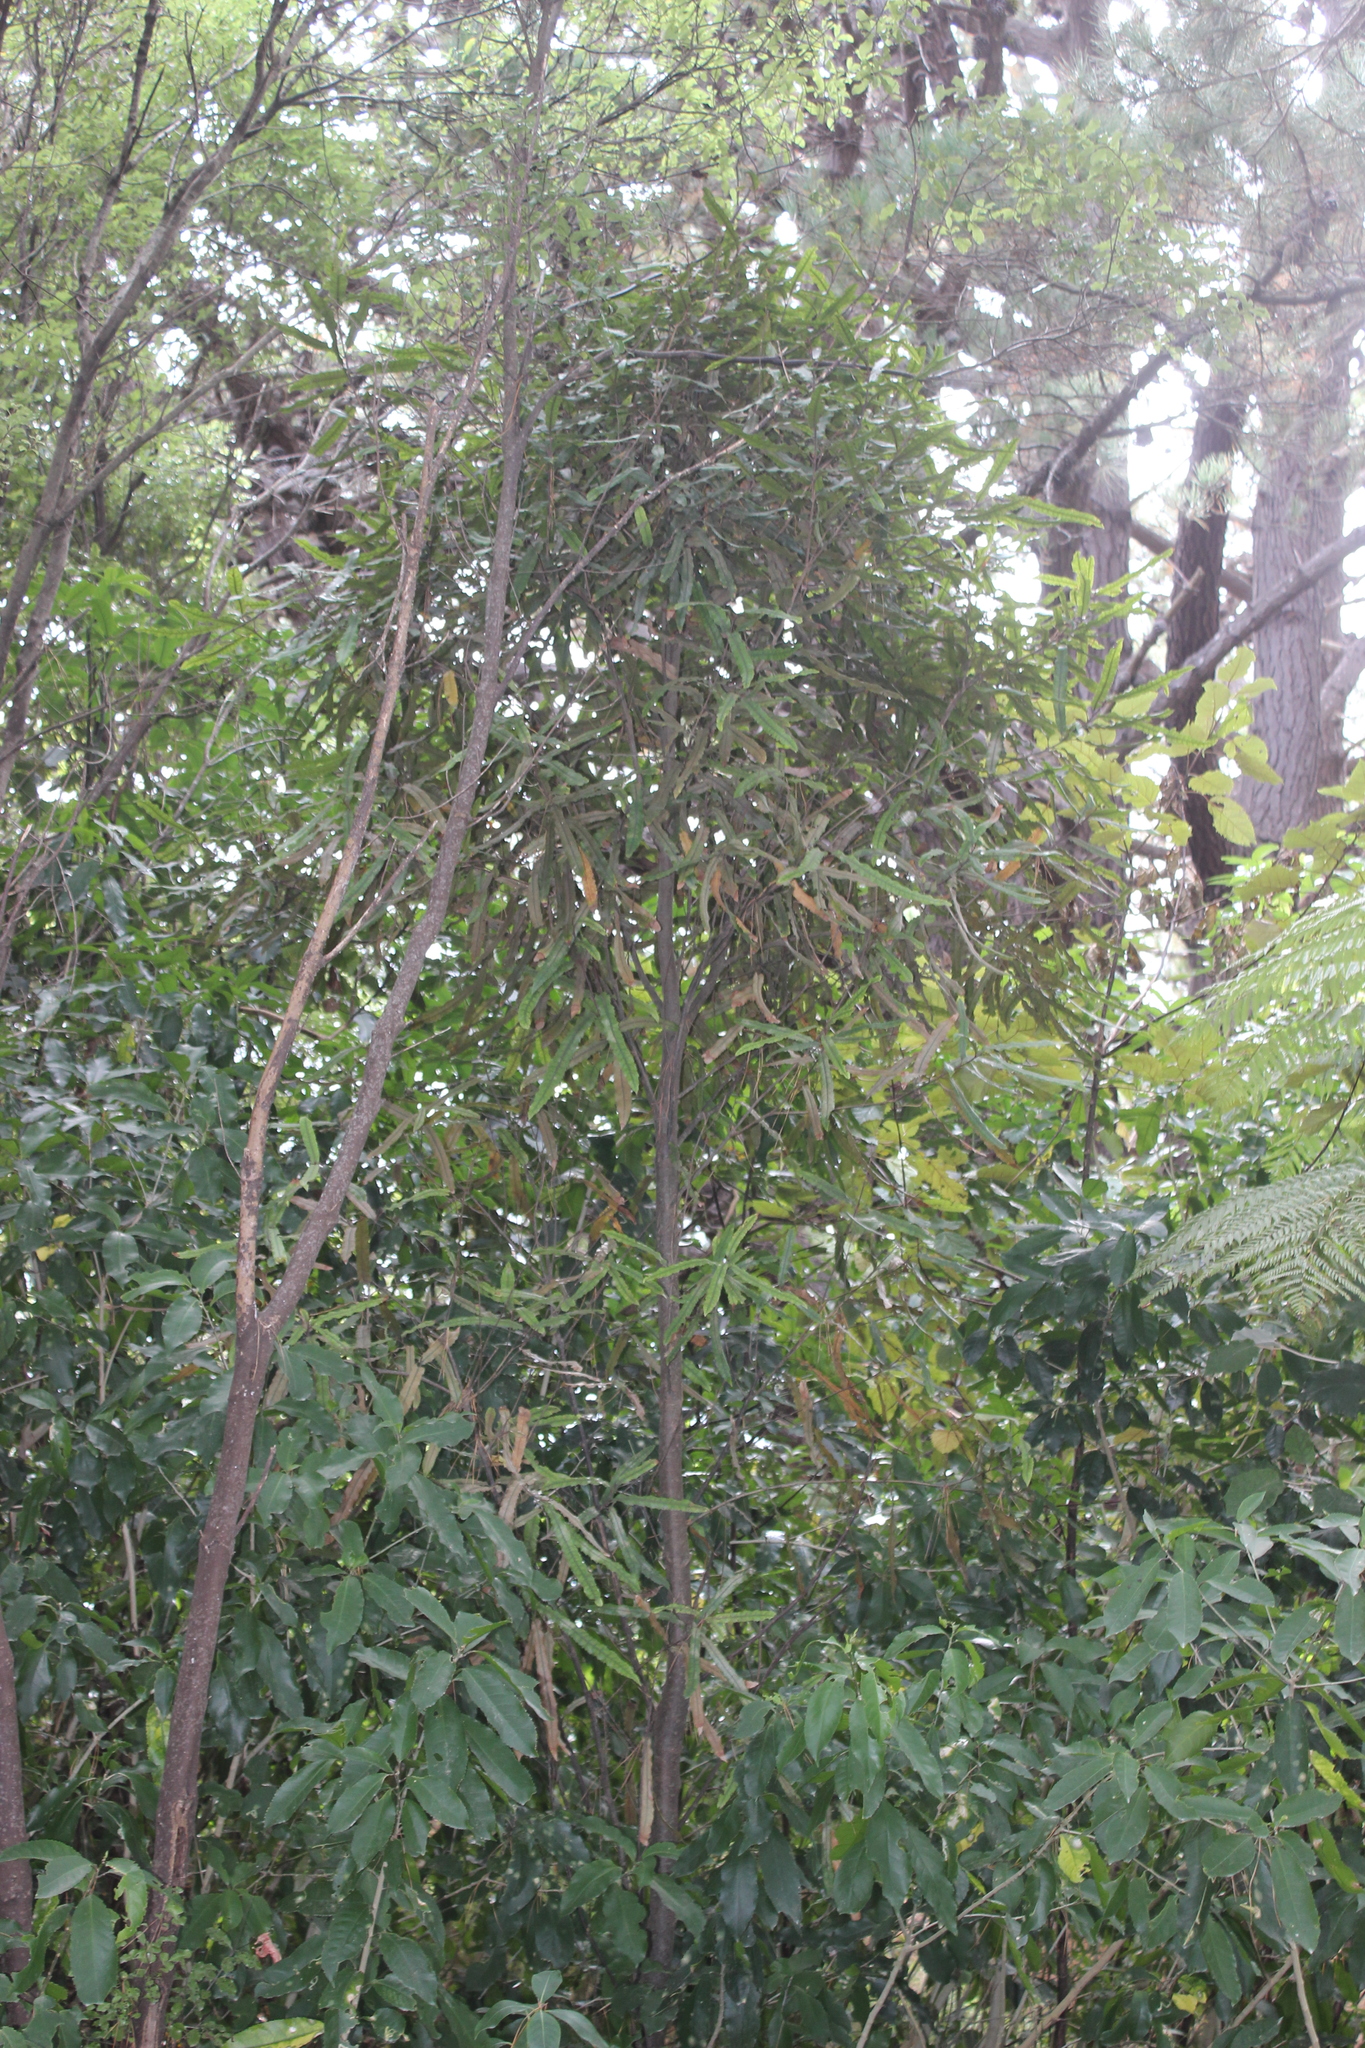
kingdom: Plantae
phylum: Tracheophyta
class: Magnoliopsida
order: Proteales
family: Proteaceae
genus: Knightia
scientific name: Knightia excelsa
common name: New zealand-honeysuckle
